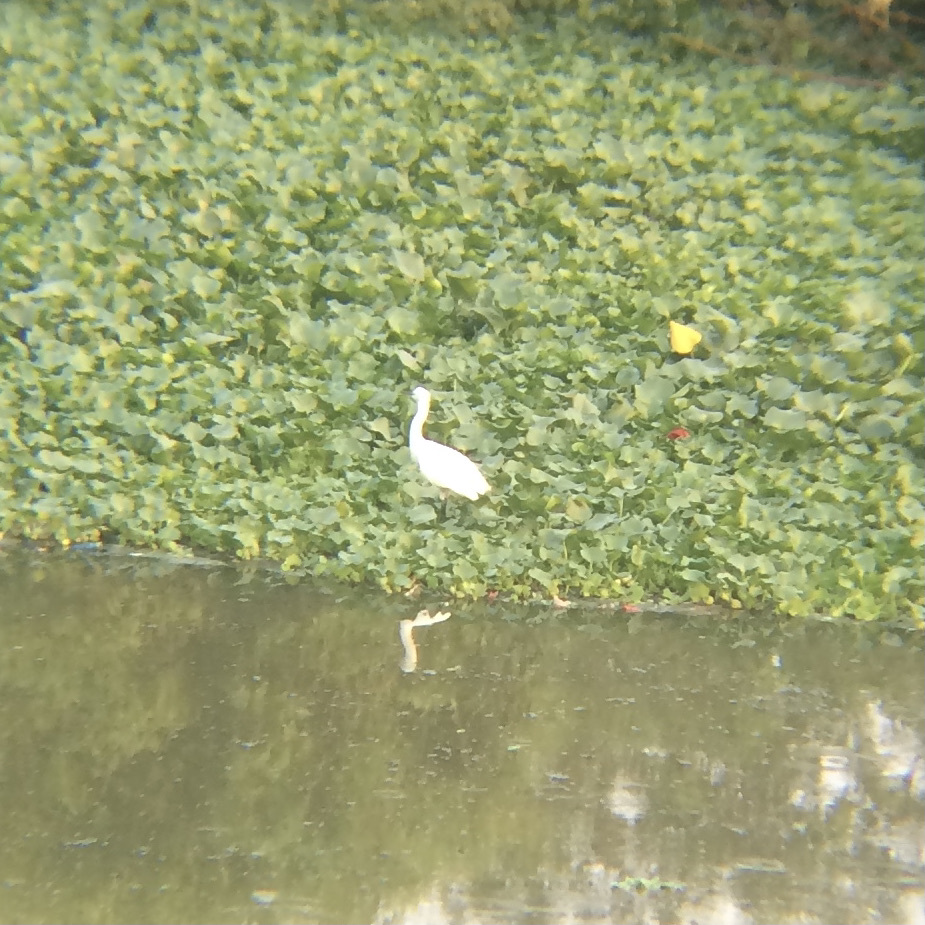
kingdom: Animalia
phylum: Chordata
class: Aves
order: Pelecaniformes
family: Ardeidae
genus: Egretta
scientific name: Egretta garzetta
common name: Little egret
